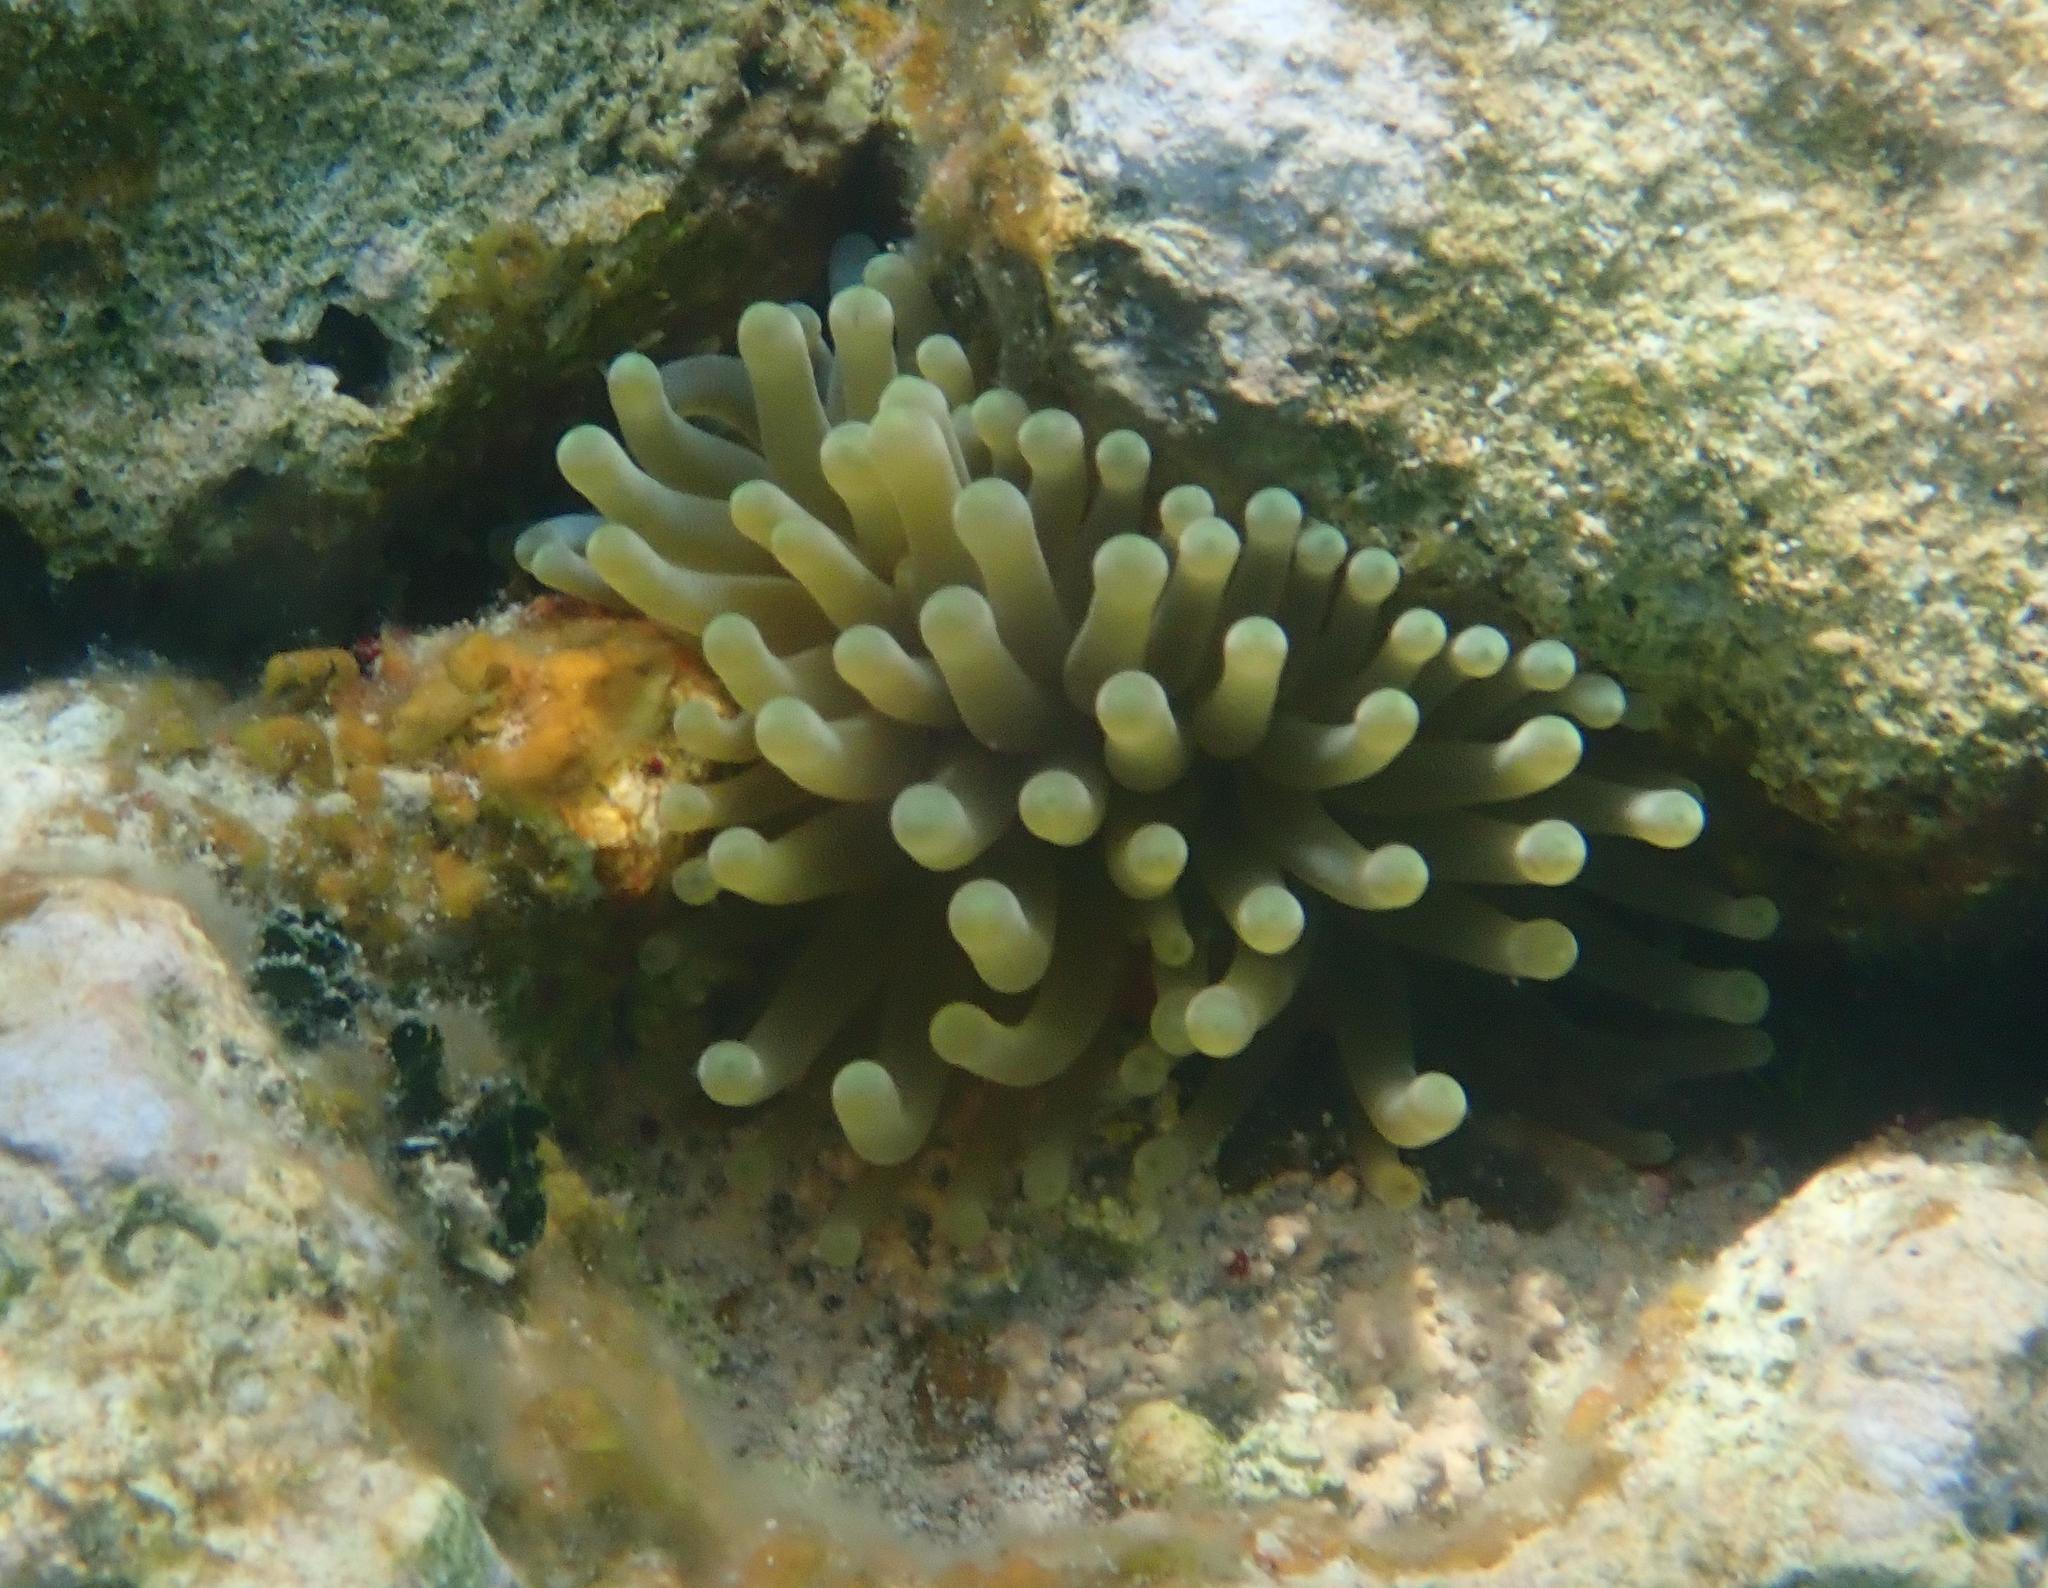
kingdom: Animalia
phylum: Cnidaria
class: Anthozoa
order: Actiniaria
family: Actiniidae
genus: Condylactis
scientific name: Condylactis gigantea
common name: Giant caribbean anemone
